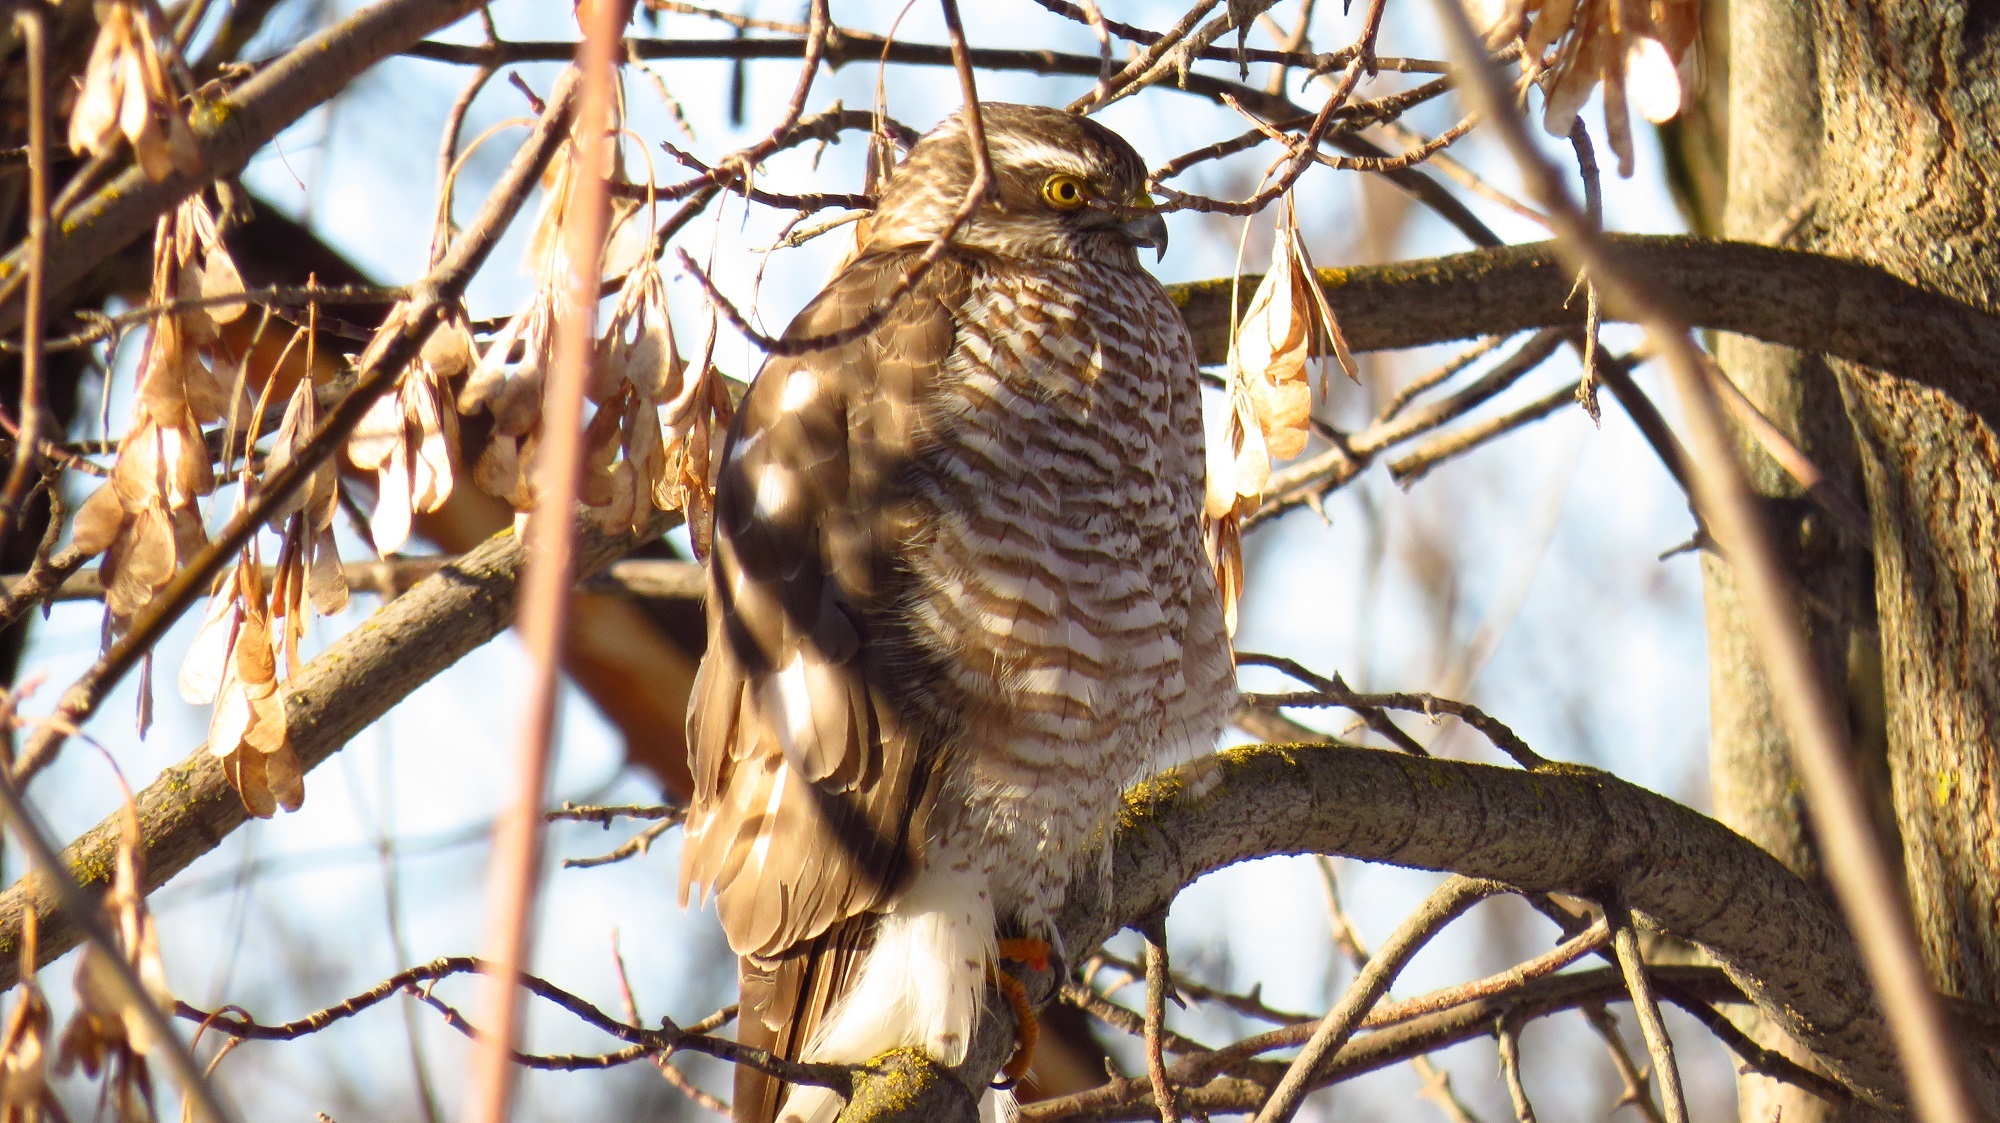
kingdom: Animalia
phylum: Chordata
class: Aves
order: Accipitriformes
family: Accipitridae
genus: Accipiter
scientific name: Accipiter nisus
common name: Eurasian sparrowhawk
